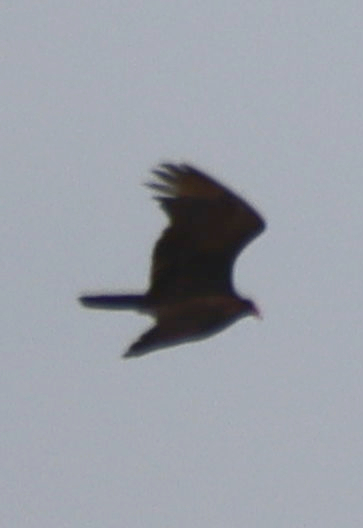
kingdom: Animalia
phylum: Chordata
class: Aves
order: Accipitriformes
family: Cathartidae
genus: Cathartes
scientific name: Cathartes aura
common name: Turkey vulture
